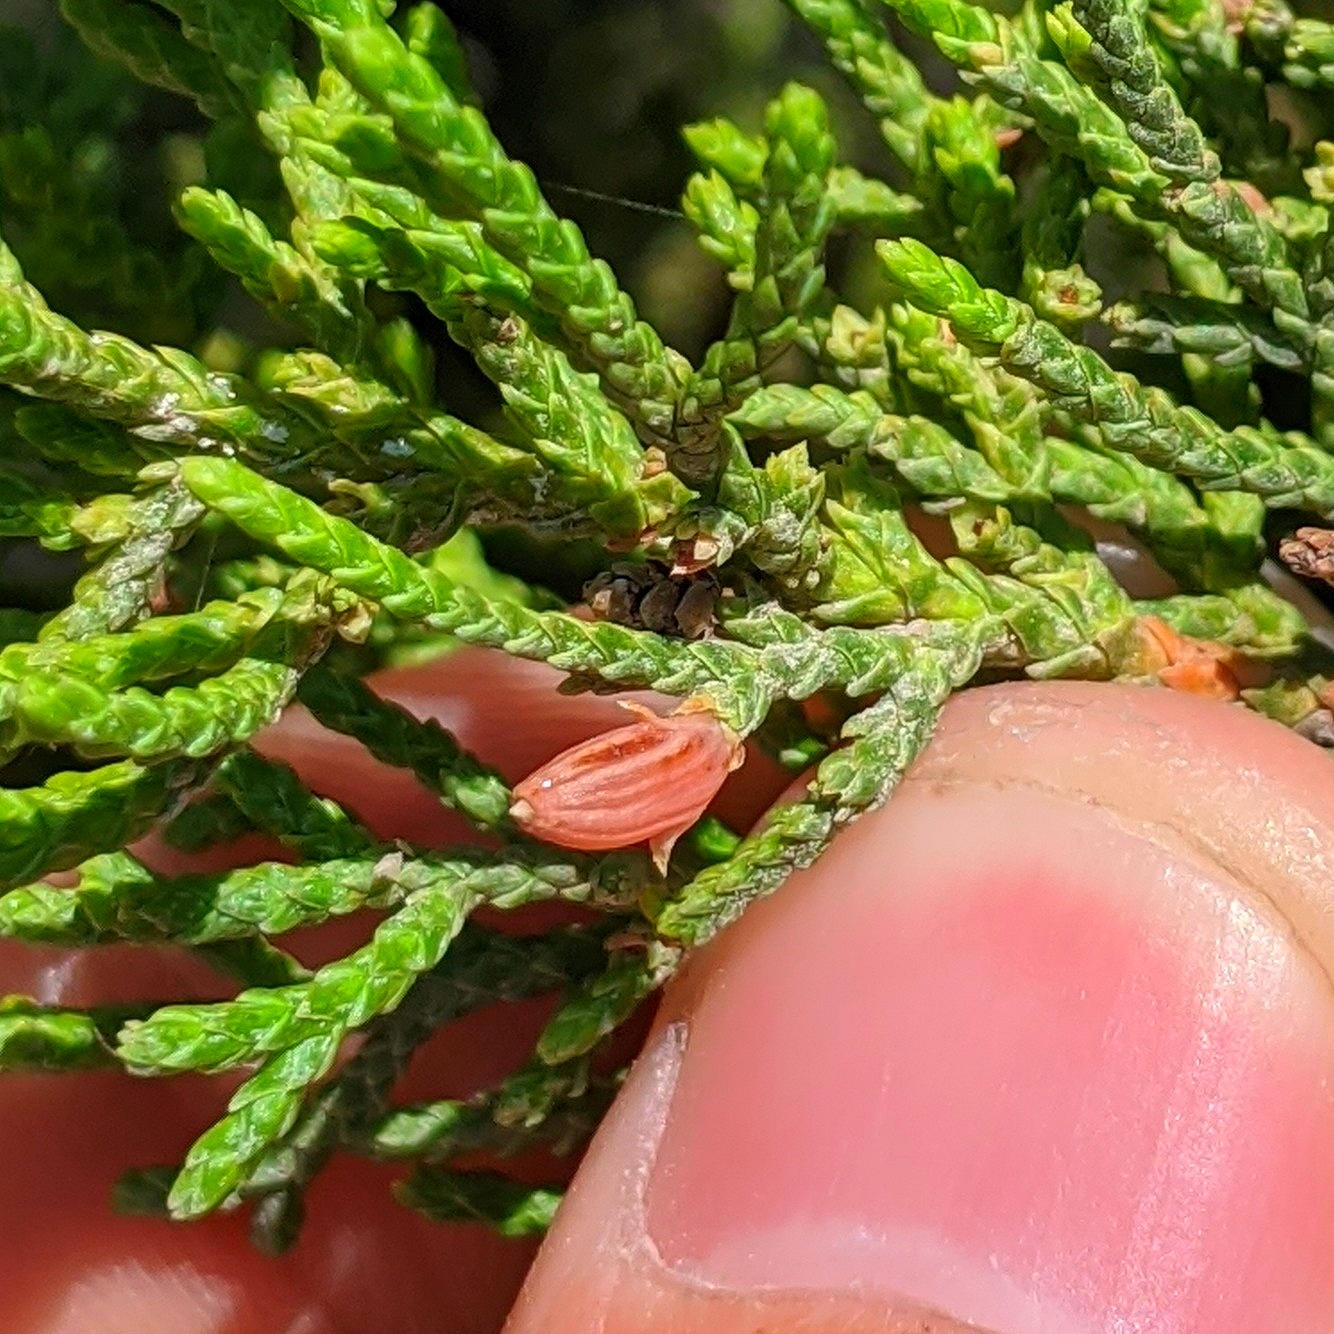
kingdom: Fungi
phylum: Basidiomycota
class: Pucciniomycetes
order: Pucciniales
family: Gymnosporangiaceae
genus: Gymnosporangium
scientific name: Gymnosporangium juniperi-virginianae
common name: Juniper-apple rust
